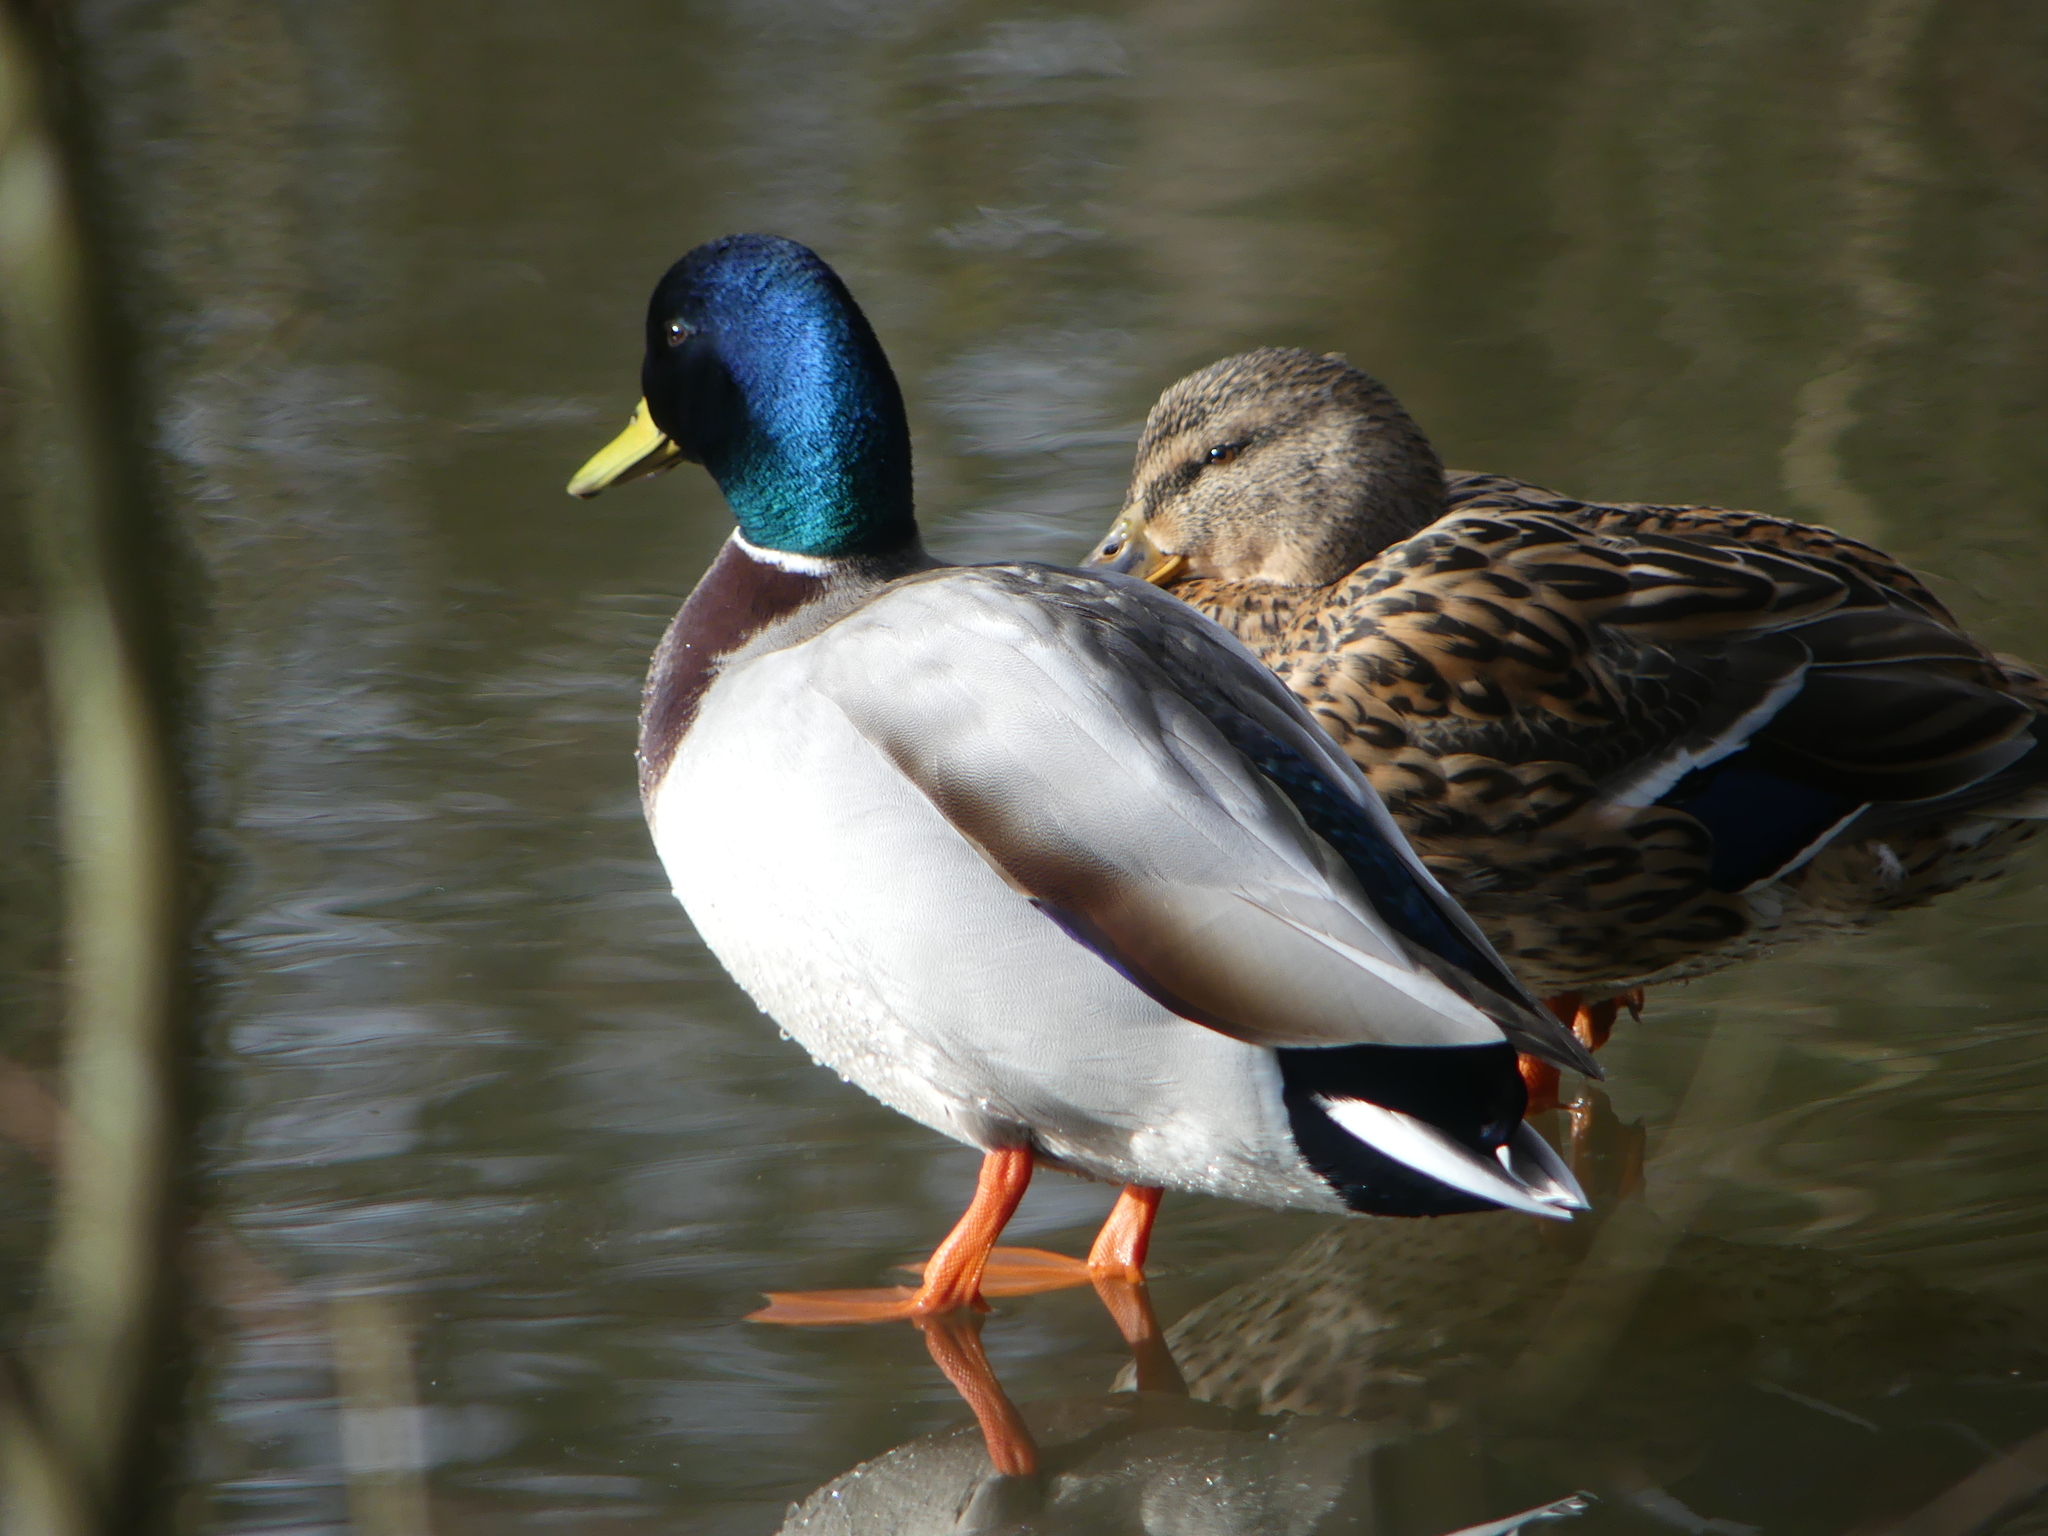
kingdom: Animalia
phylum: Chordata
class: Aves
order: Anseriformes
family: Anatidae
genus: Anas
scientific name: Anas platyrhynchos
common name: Mallard
